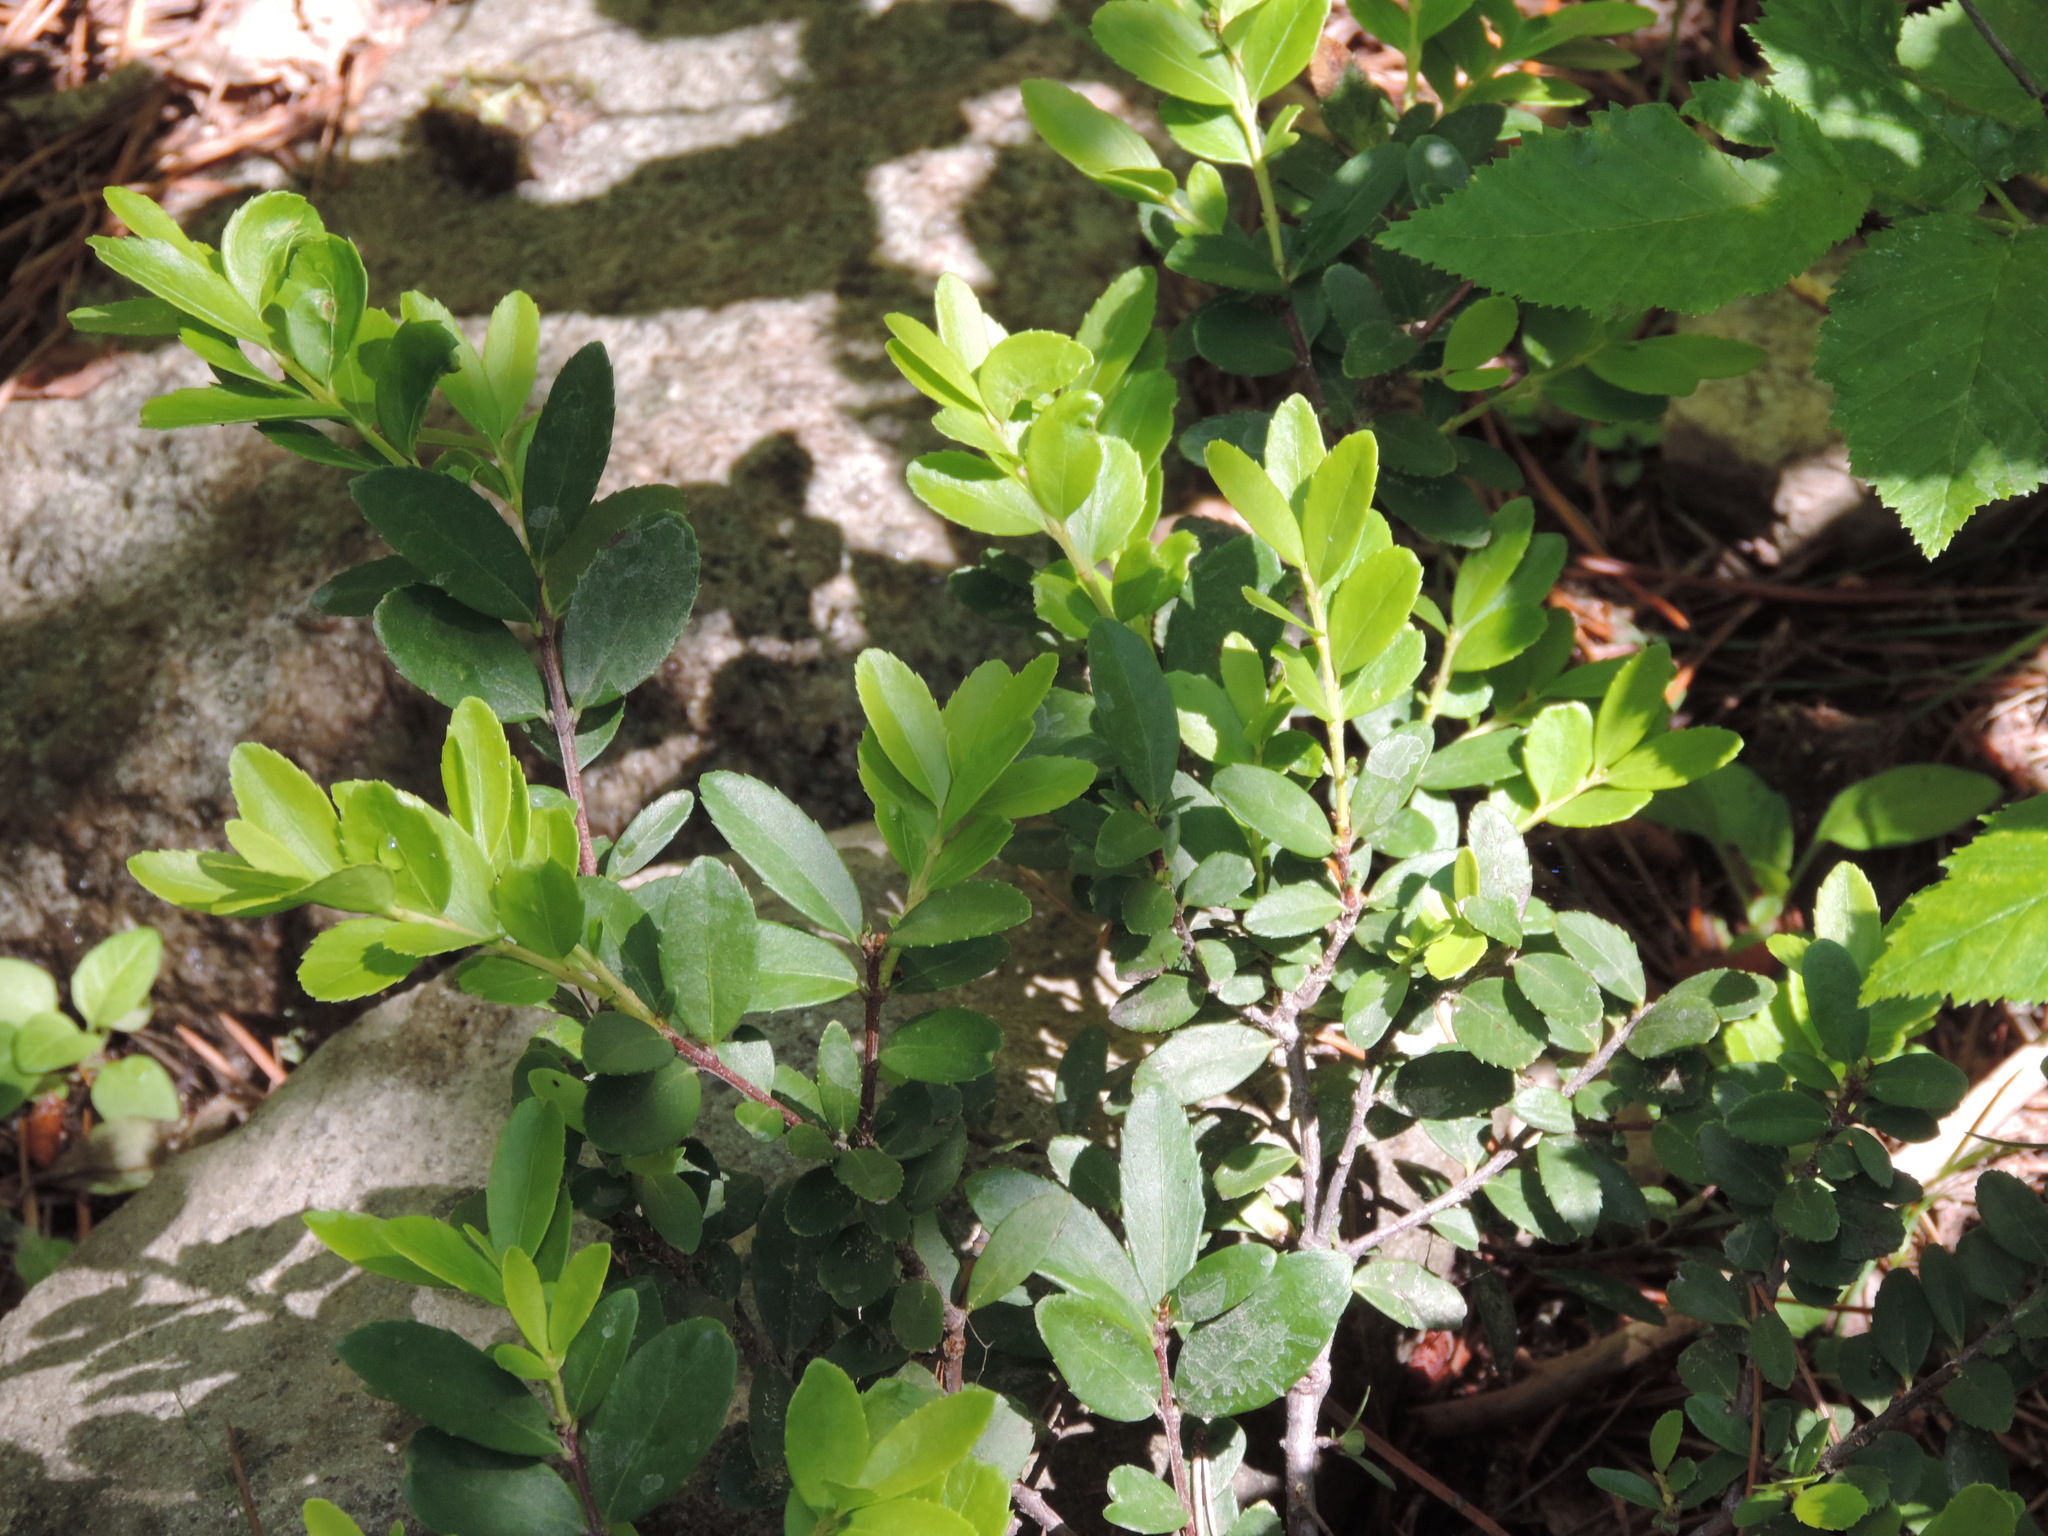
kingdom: Plantae
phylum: Tracheophyta
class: Magnoliopsida
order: Celastrales
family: Celastraceae
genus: Paxistima
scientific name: Paxistima myrsinites
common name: Mountain-lover
